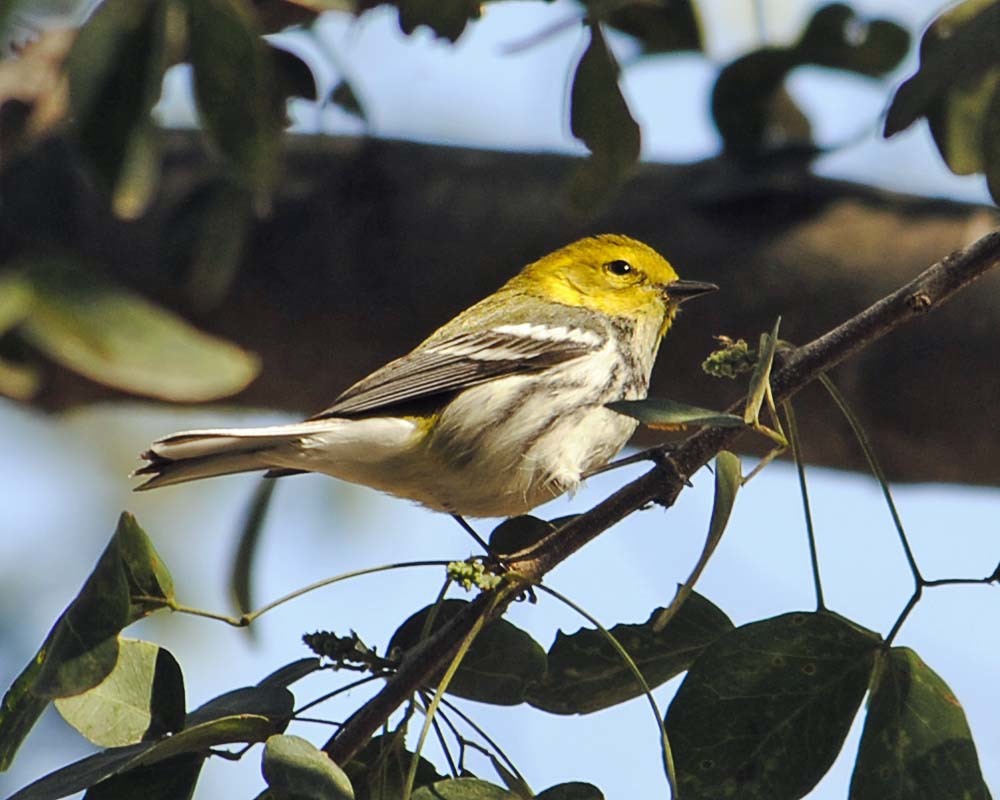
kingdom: Animalia
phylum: Chordata
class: Aves
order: Passeriformes
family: Parulidae
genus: Setophaga
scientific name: Setophaga virens
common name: Black-throated green warbler
